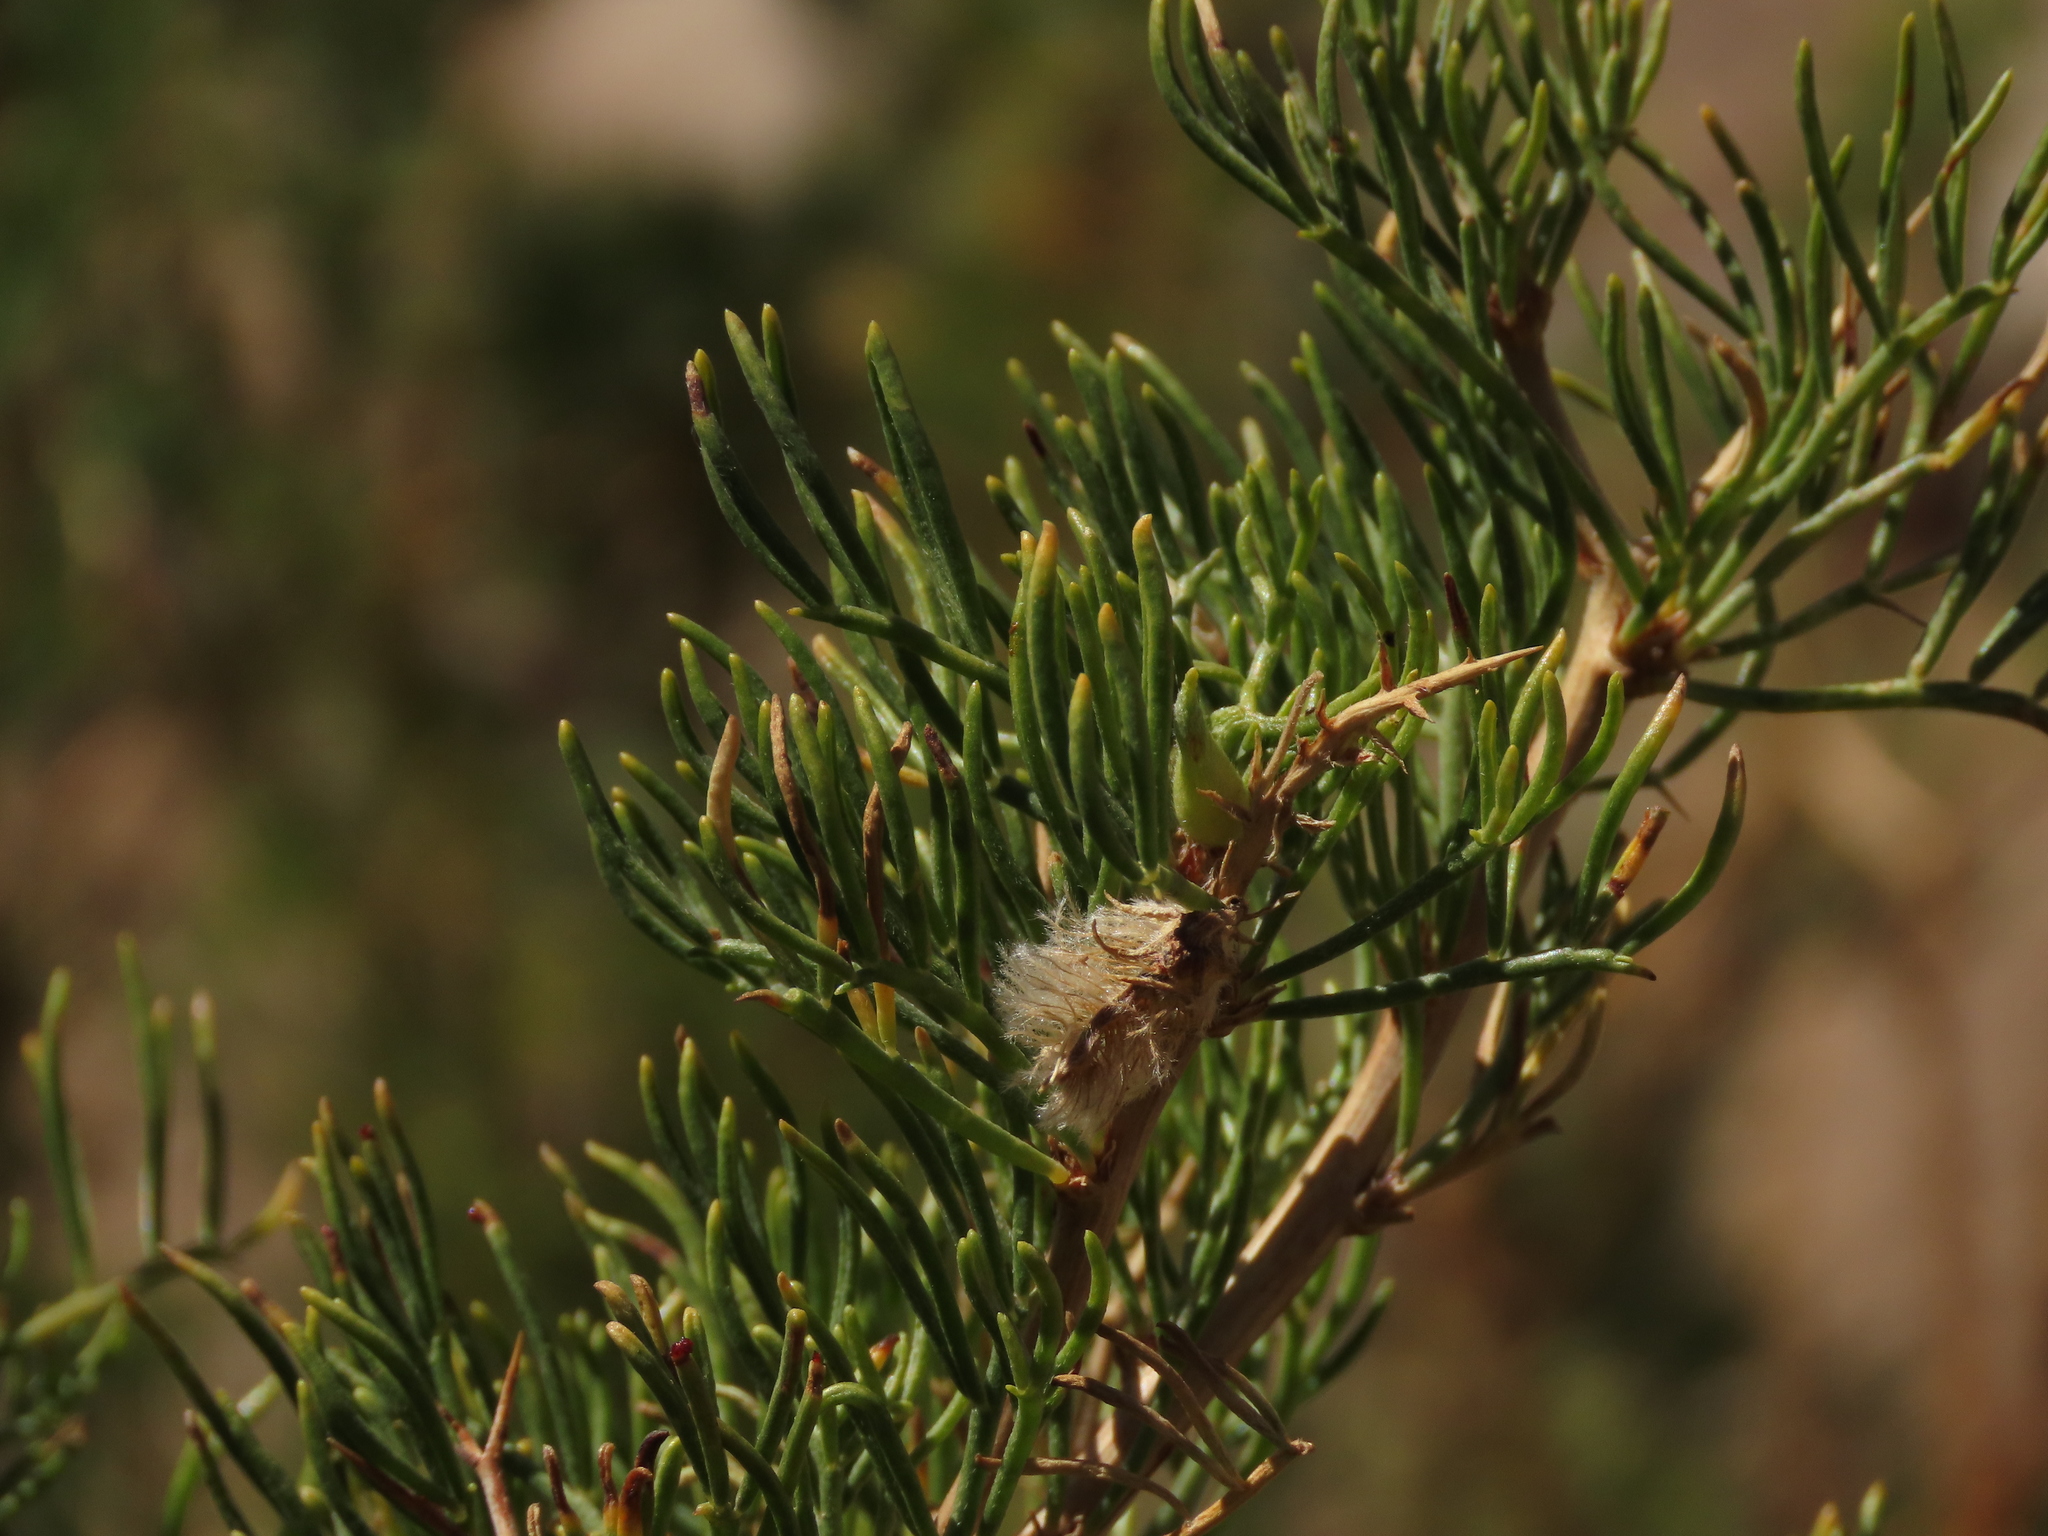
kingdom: Plantae
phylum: Tracheophyta
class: Magnoliopsida
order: Fabales
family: Fabaceae
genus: Adesmia
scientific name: Adesmia pinifolia
